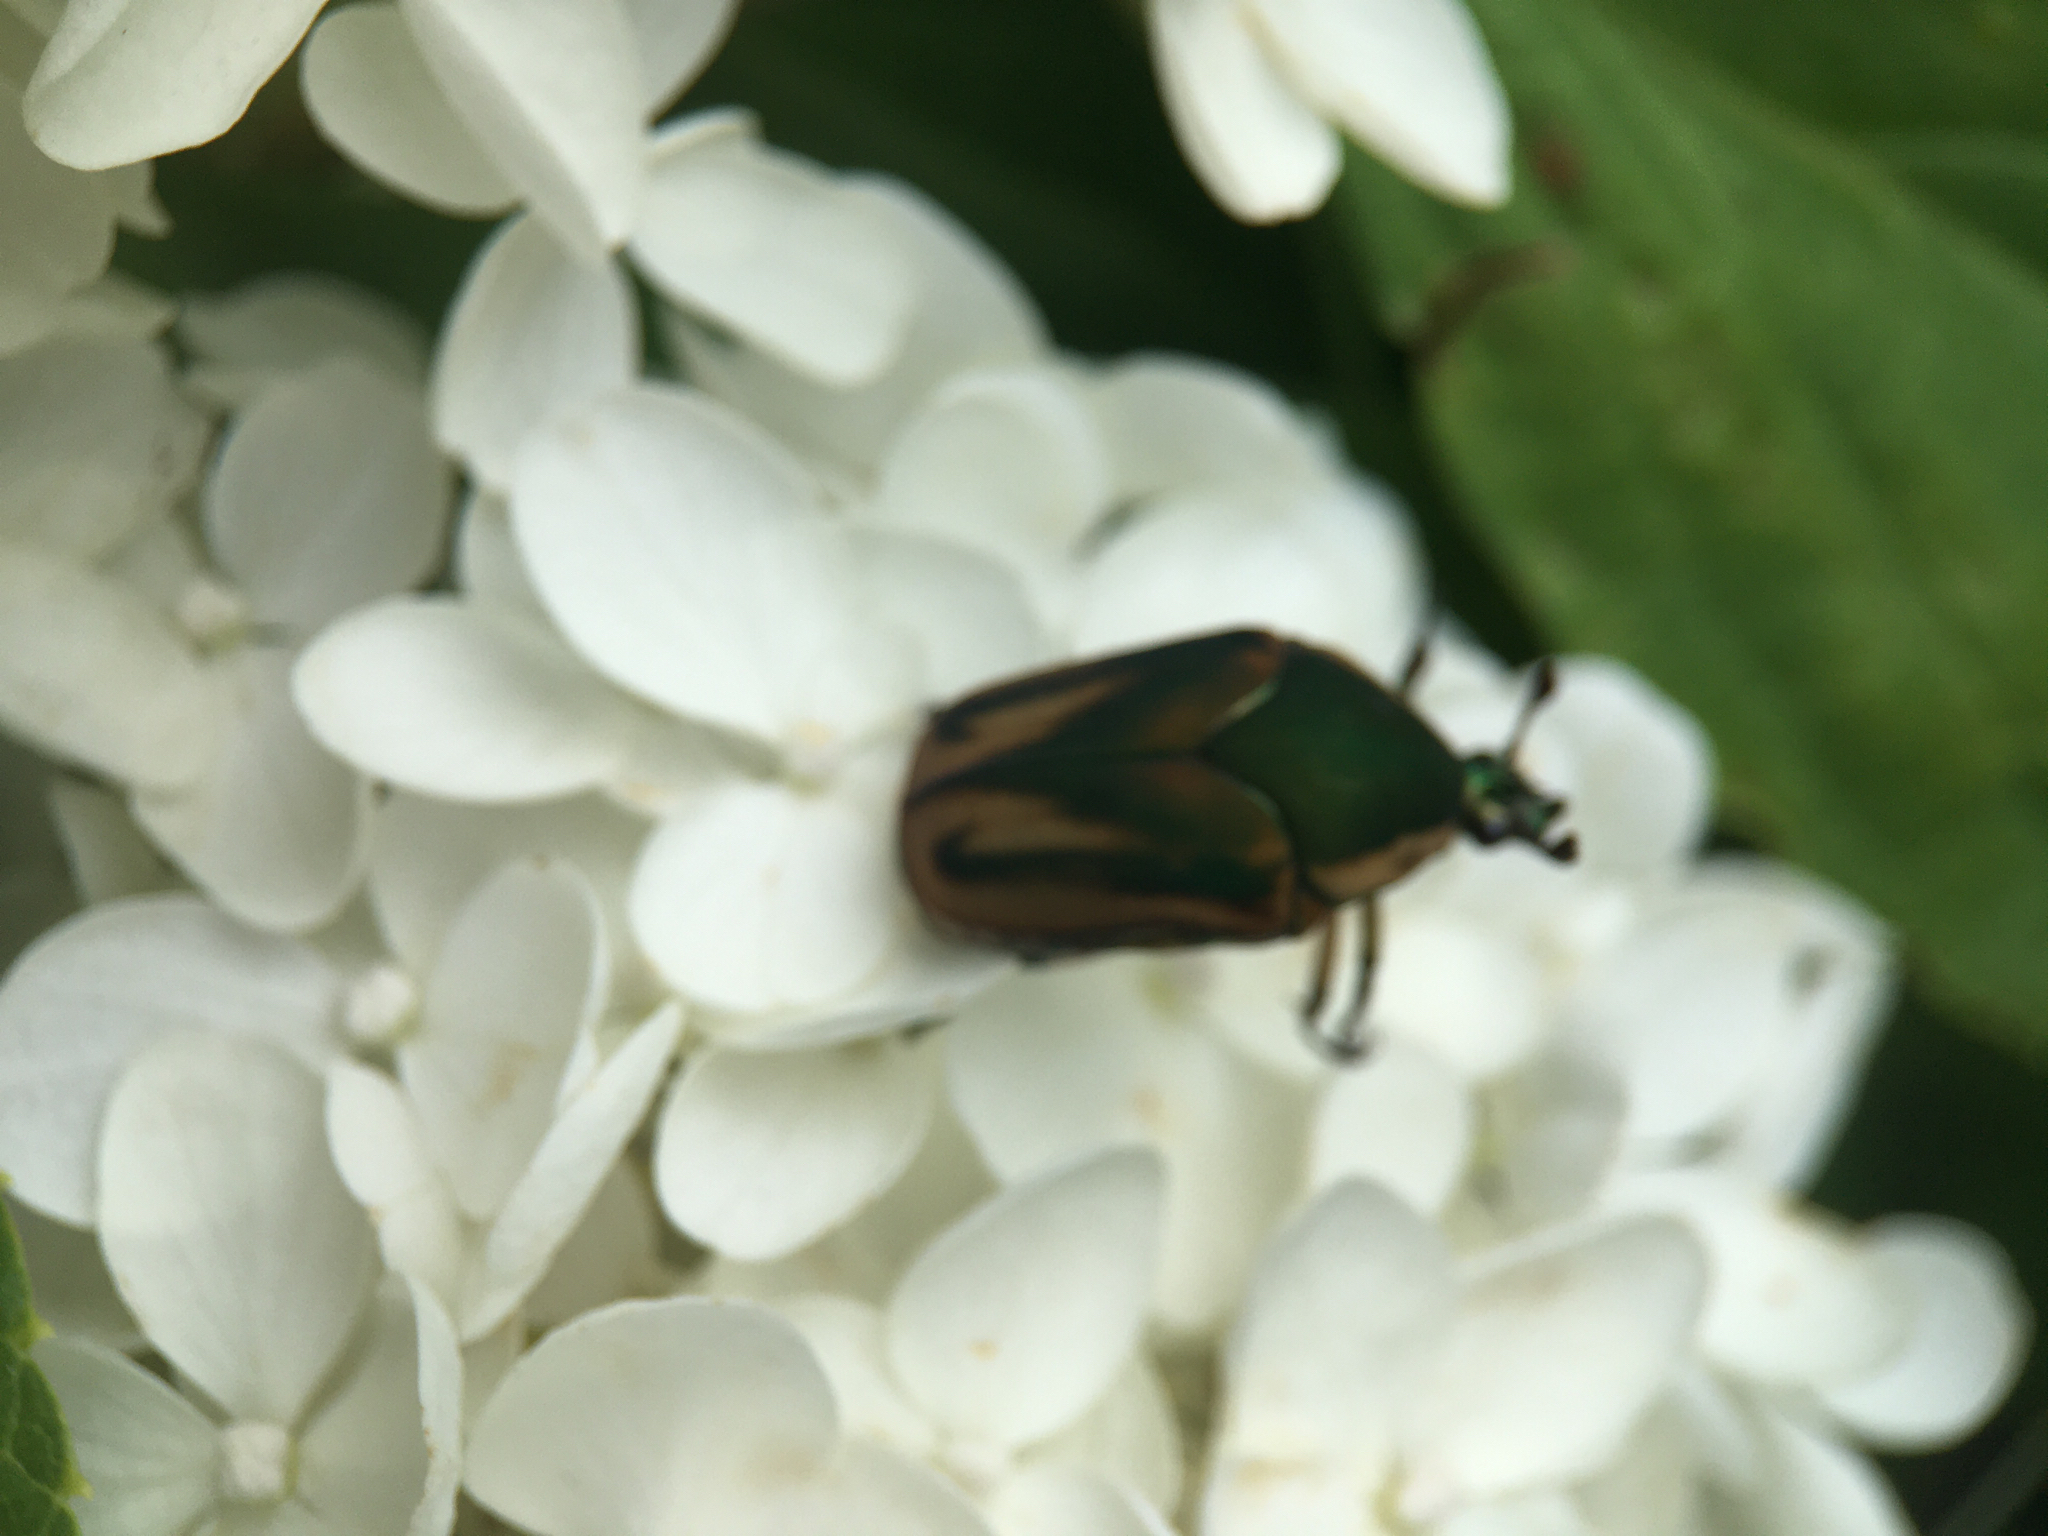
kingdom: Animalia
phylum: Arthropoda
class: Insecta
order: Coleoptera
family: Scarabaeidae
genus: Cotinis
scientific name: Cotinis nitida
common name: Common green june beetle
